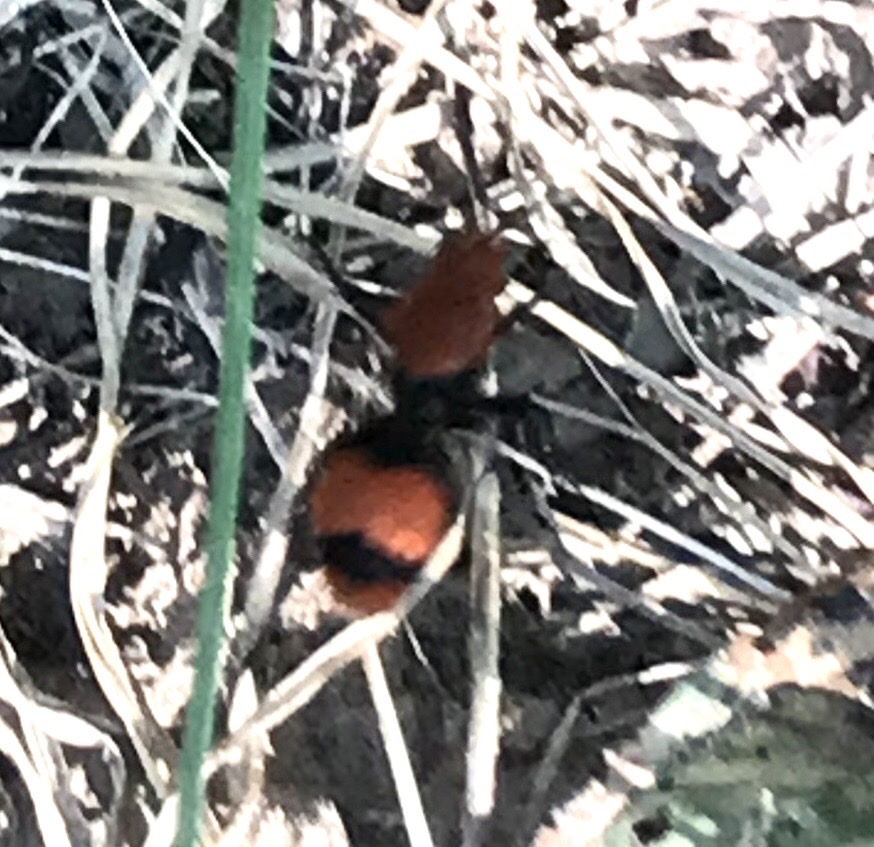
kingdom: Animalia
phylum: Arthropoda
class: Insecta
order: Hymenoptera
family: Mutillidae
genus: Dasymutilla
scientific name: Dasymutilla occidentalis
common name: Common eastern velvet ant
